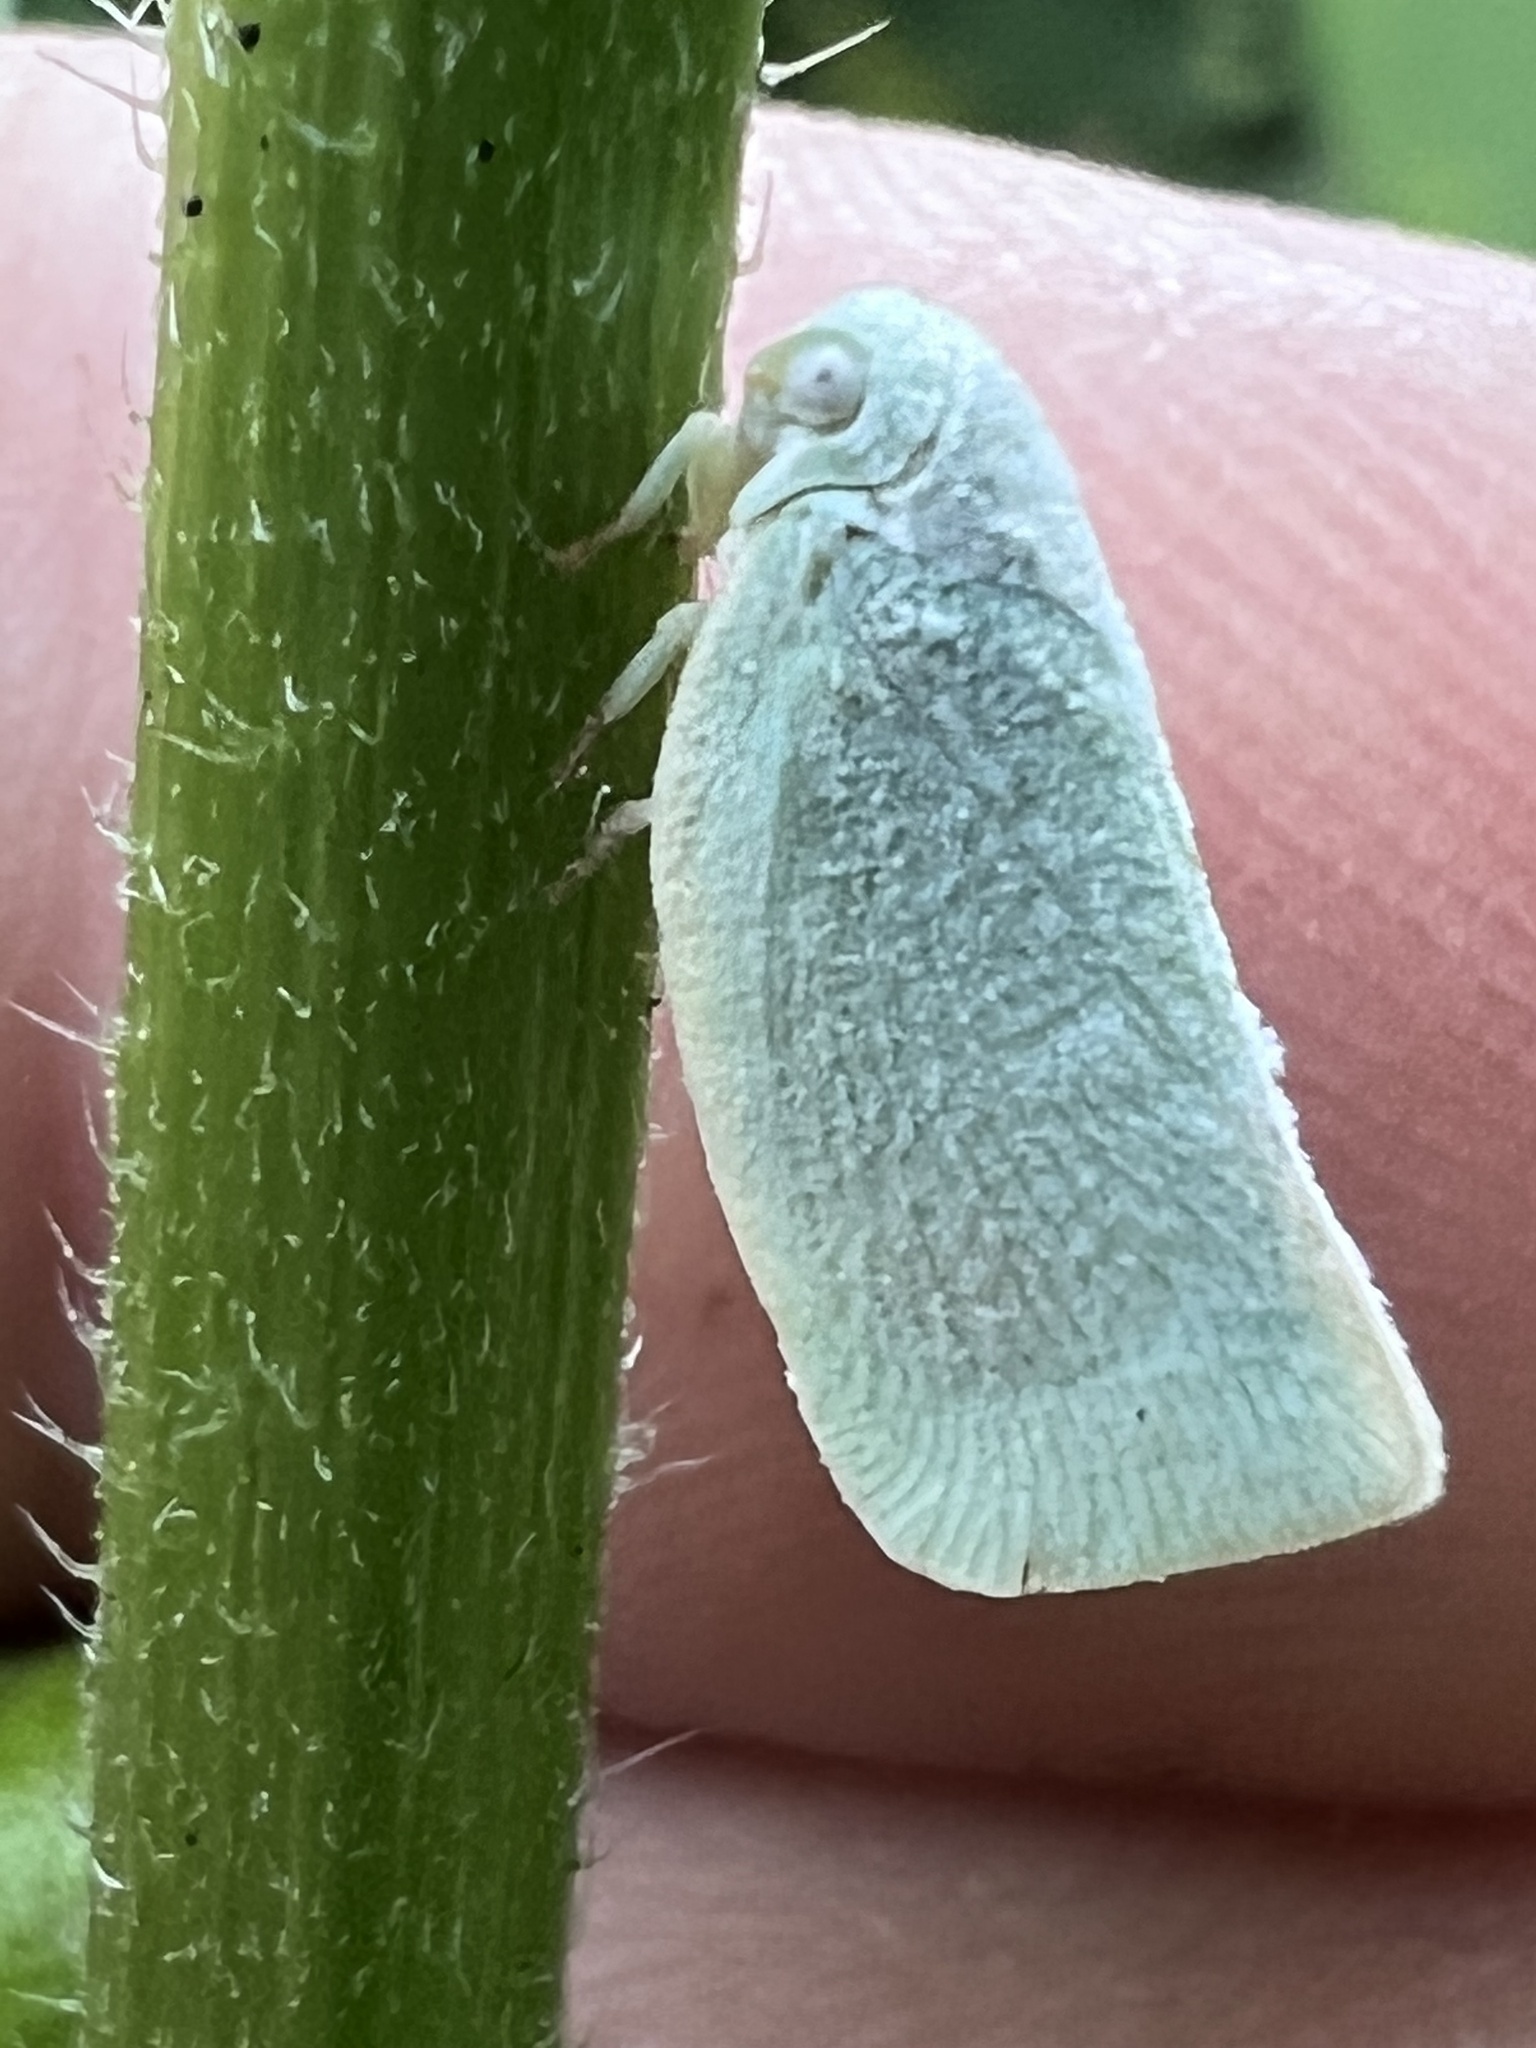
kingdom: Animalia
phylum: Arthropoda
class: Insecta
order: Hemiptera
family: Flatidae
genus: Flatormenis
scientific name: Flatormenis proxima
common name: Northern flatid planthopper
